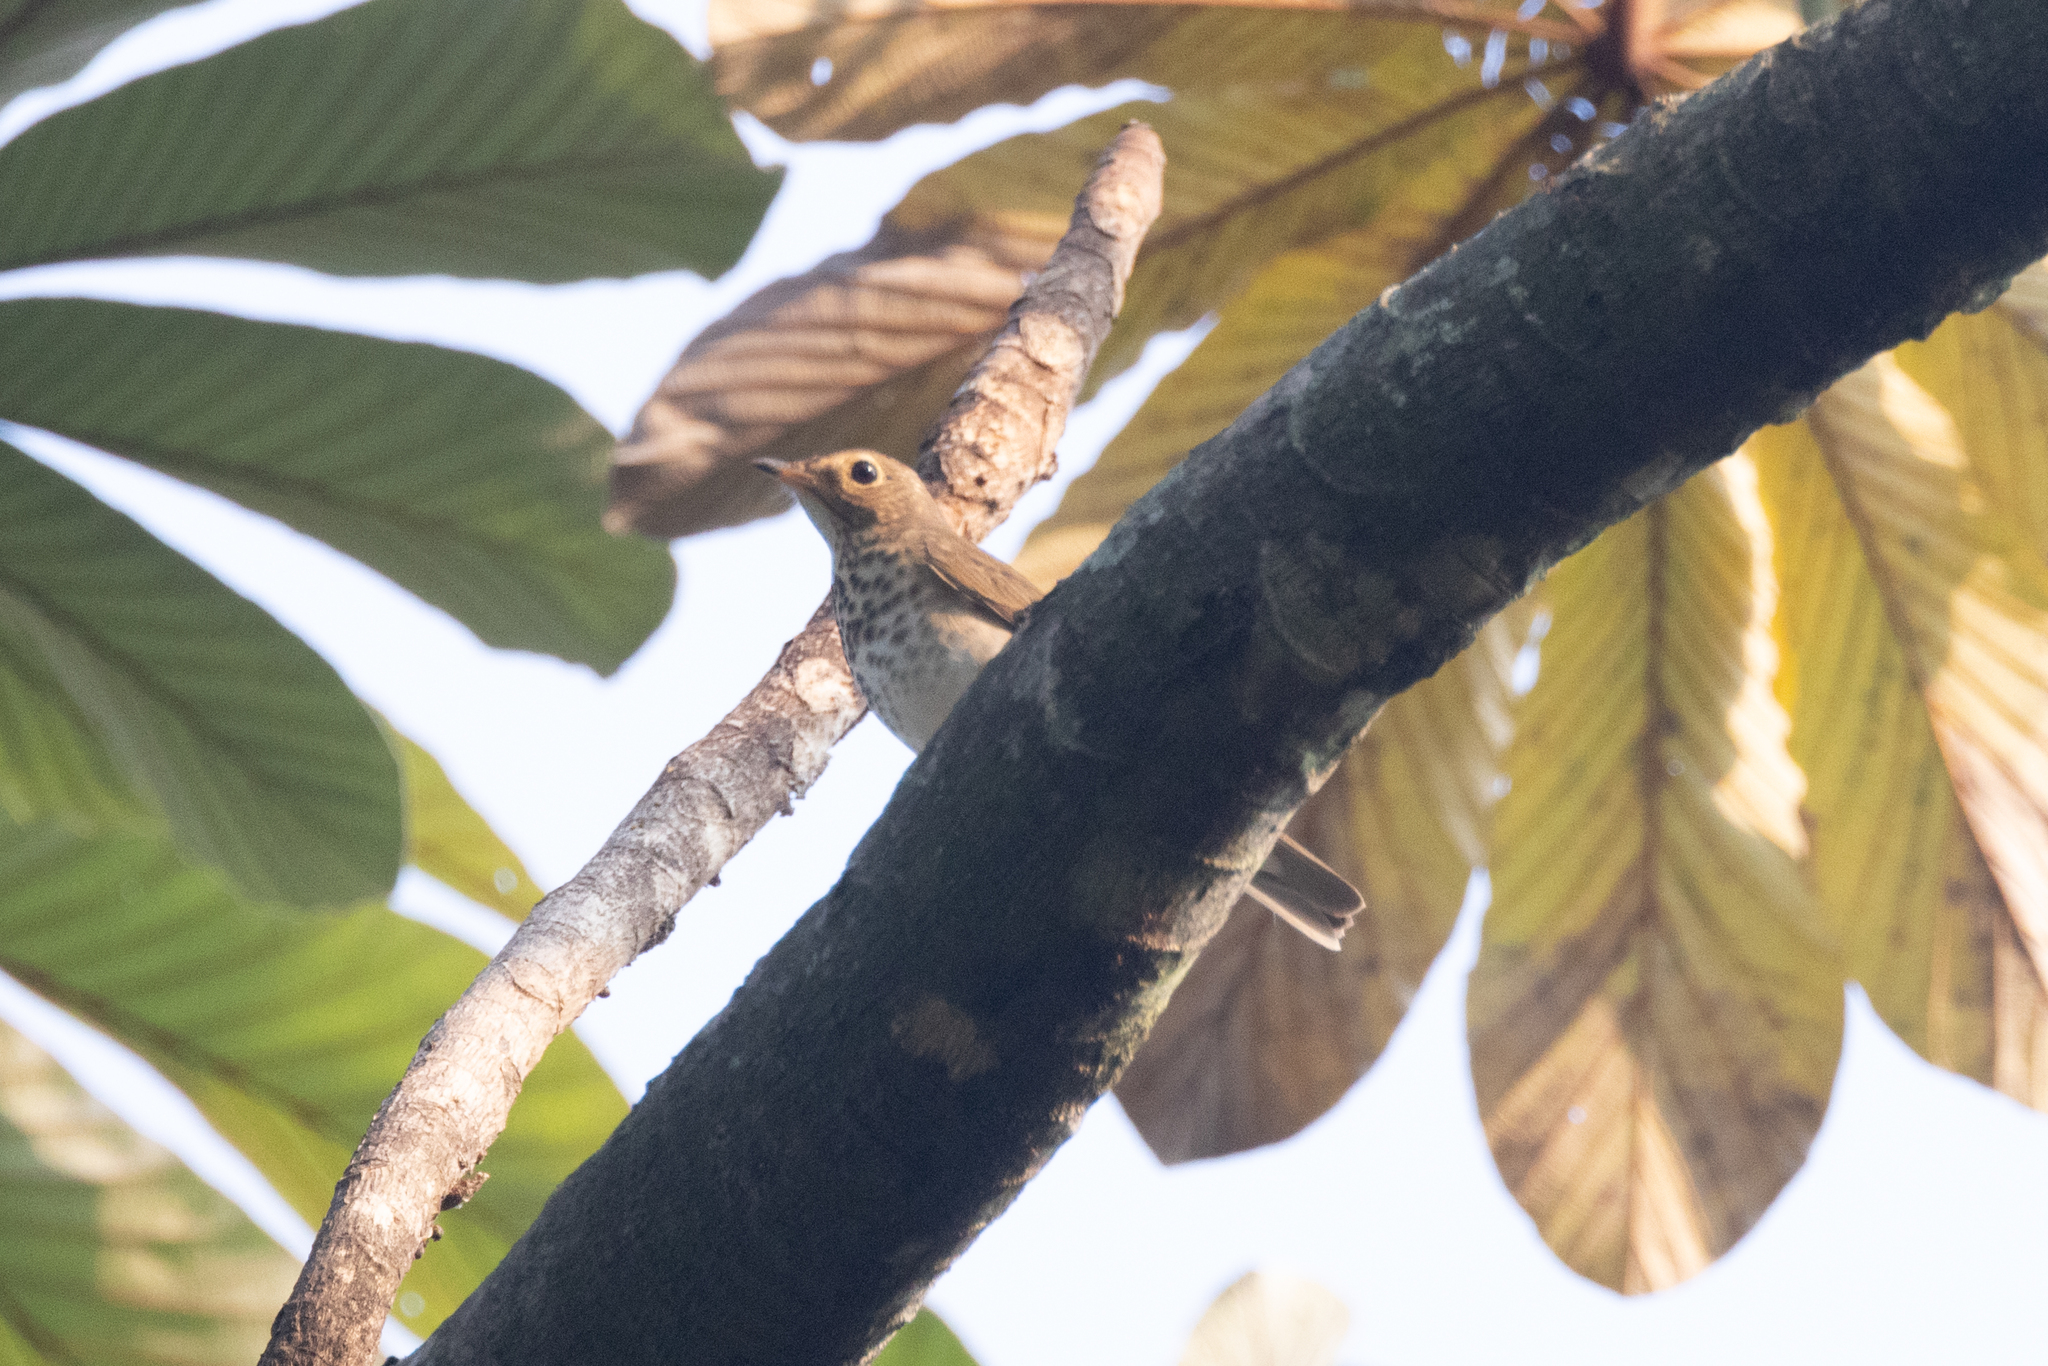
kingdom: Animalia
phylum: Chordata
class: Aves
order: Passeriformes
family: Turdidae
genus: Catharus
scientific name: Catharus ustulatus
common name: Swainson's thrush
